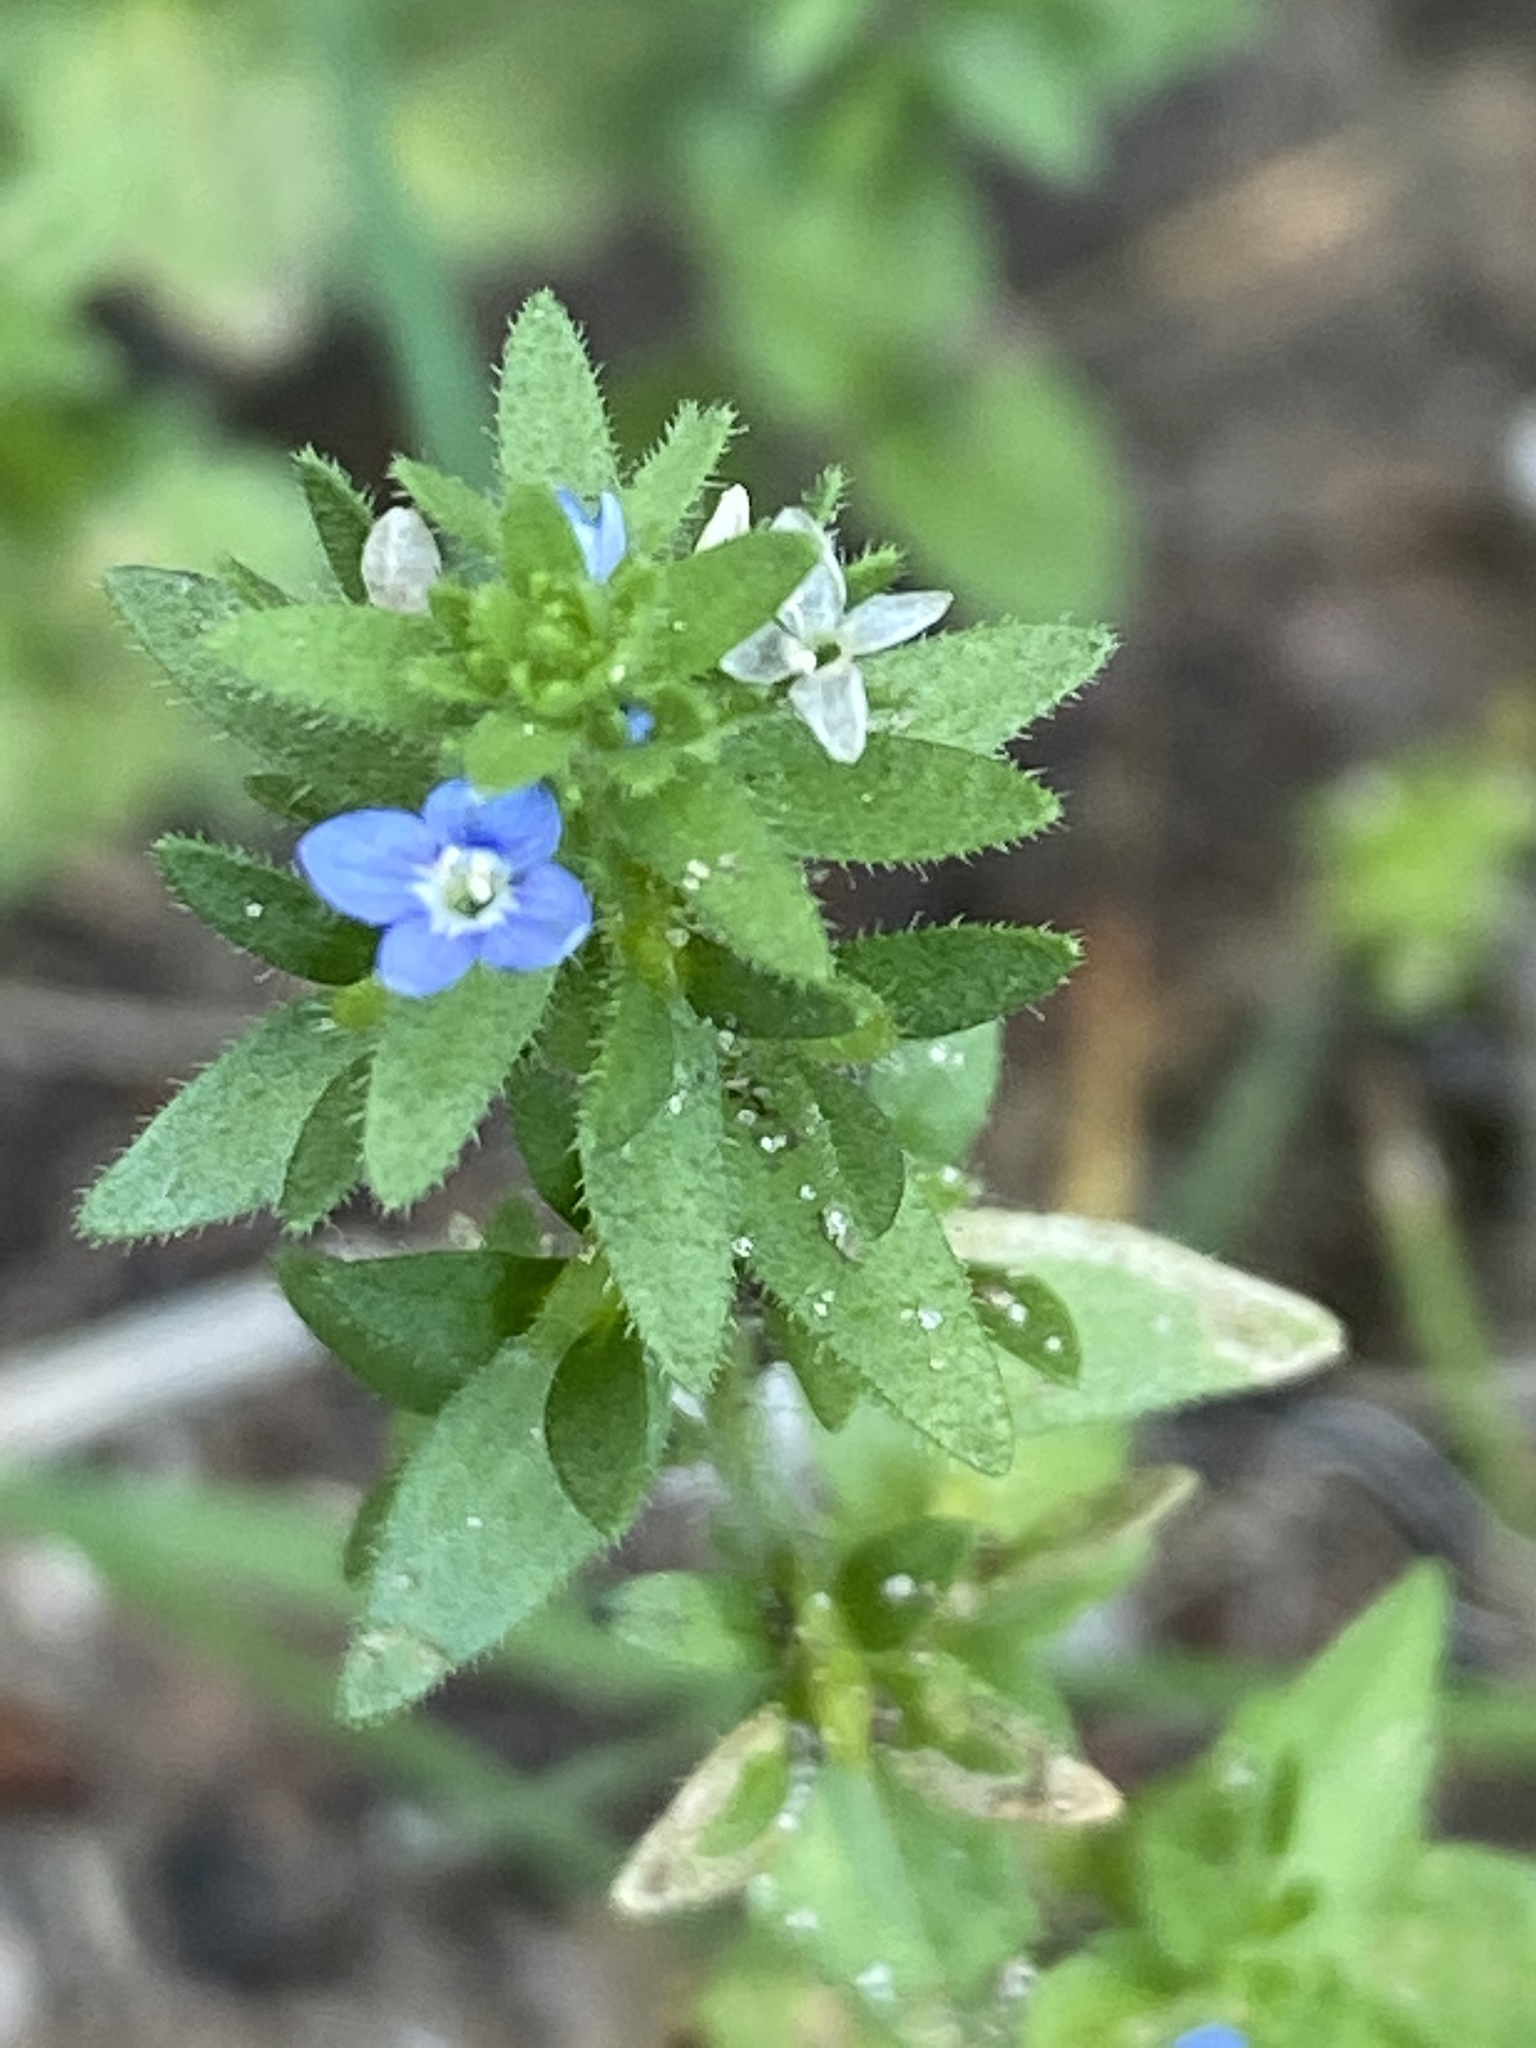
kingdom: Plantae
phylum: Tracheophyta
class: Magnoliopsida
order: Lamiales
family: Plantaginaceae
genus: Veronica
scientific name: Veronica arvensis
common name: Corn speedwell
